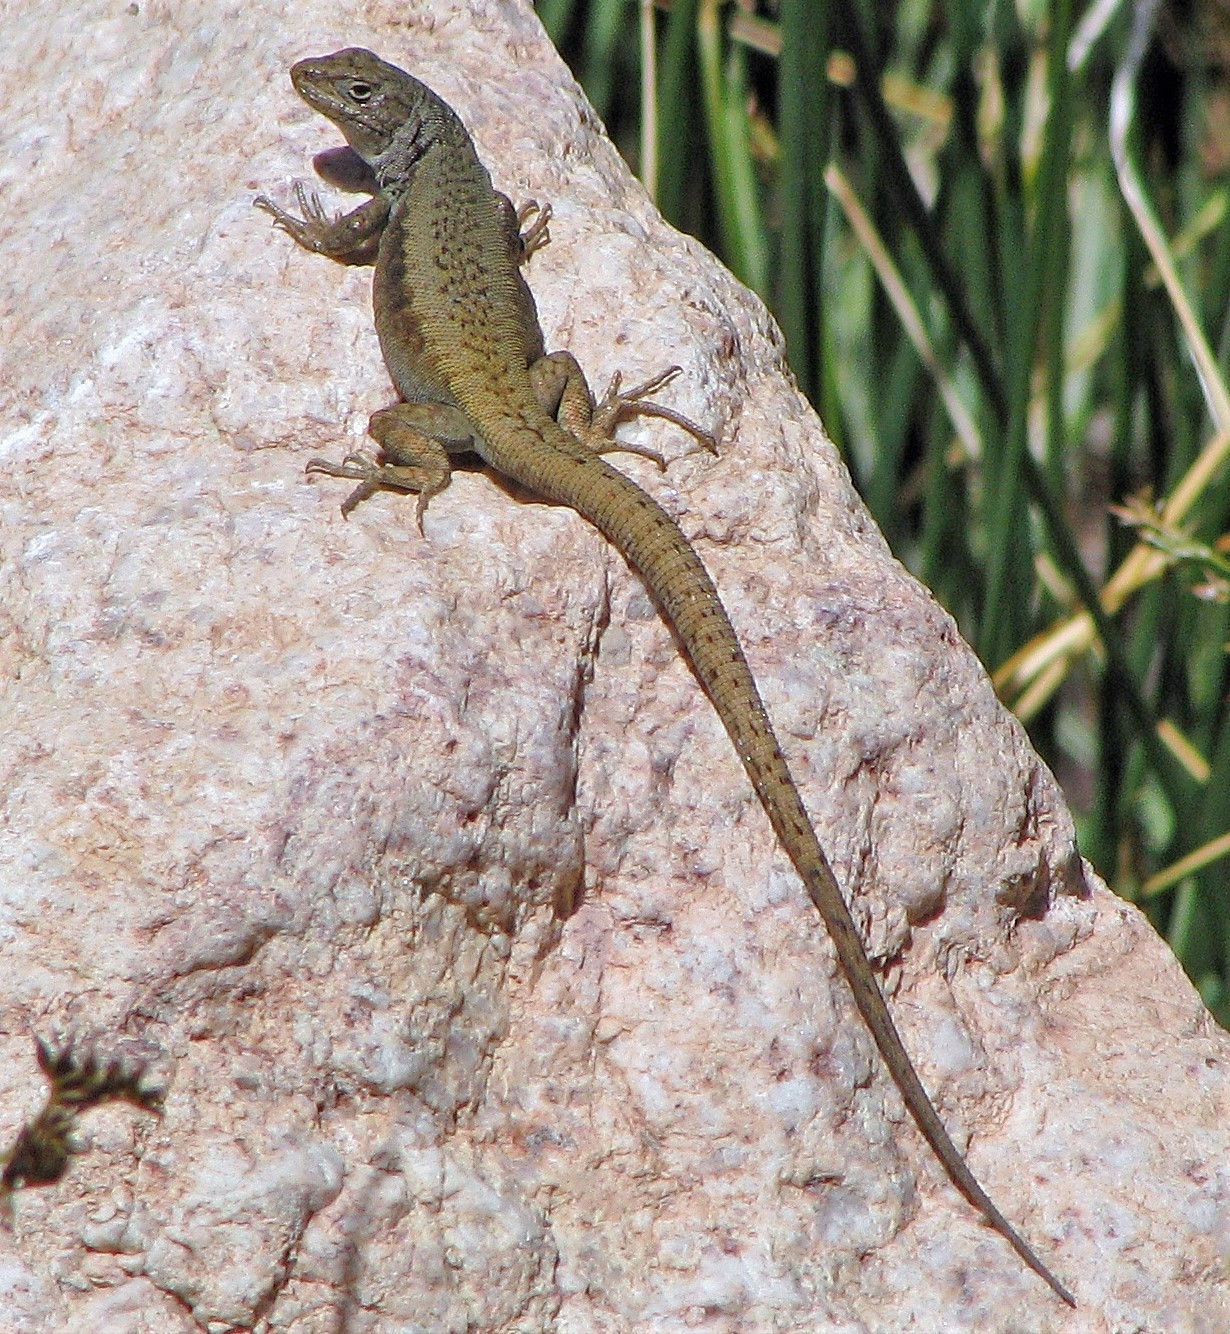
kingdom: Animalia
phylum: Chordata
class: Squamata
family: Liolaemidae
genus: Liolaemus
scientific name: Liolaemus parvus
